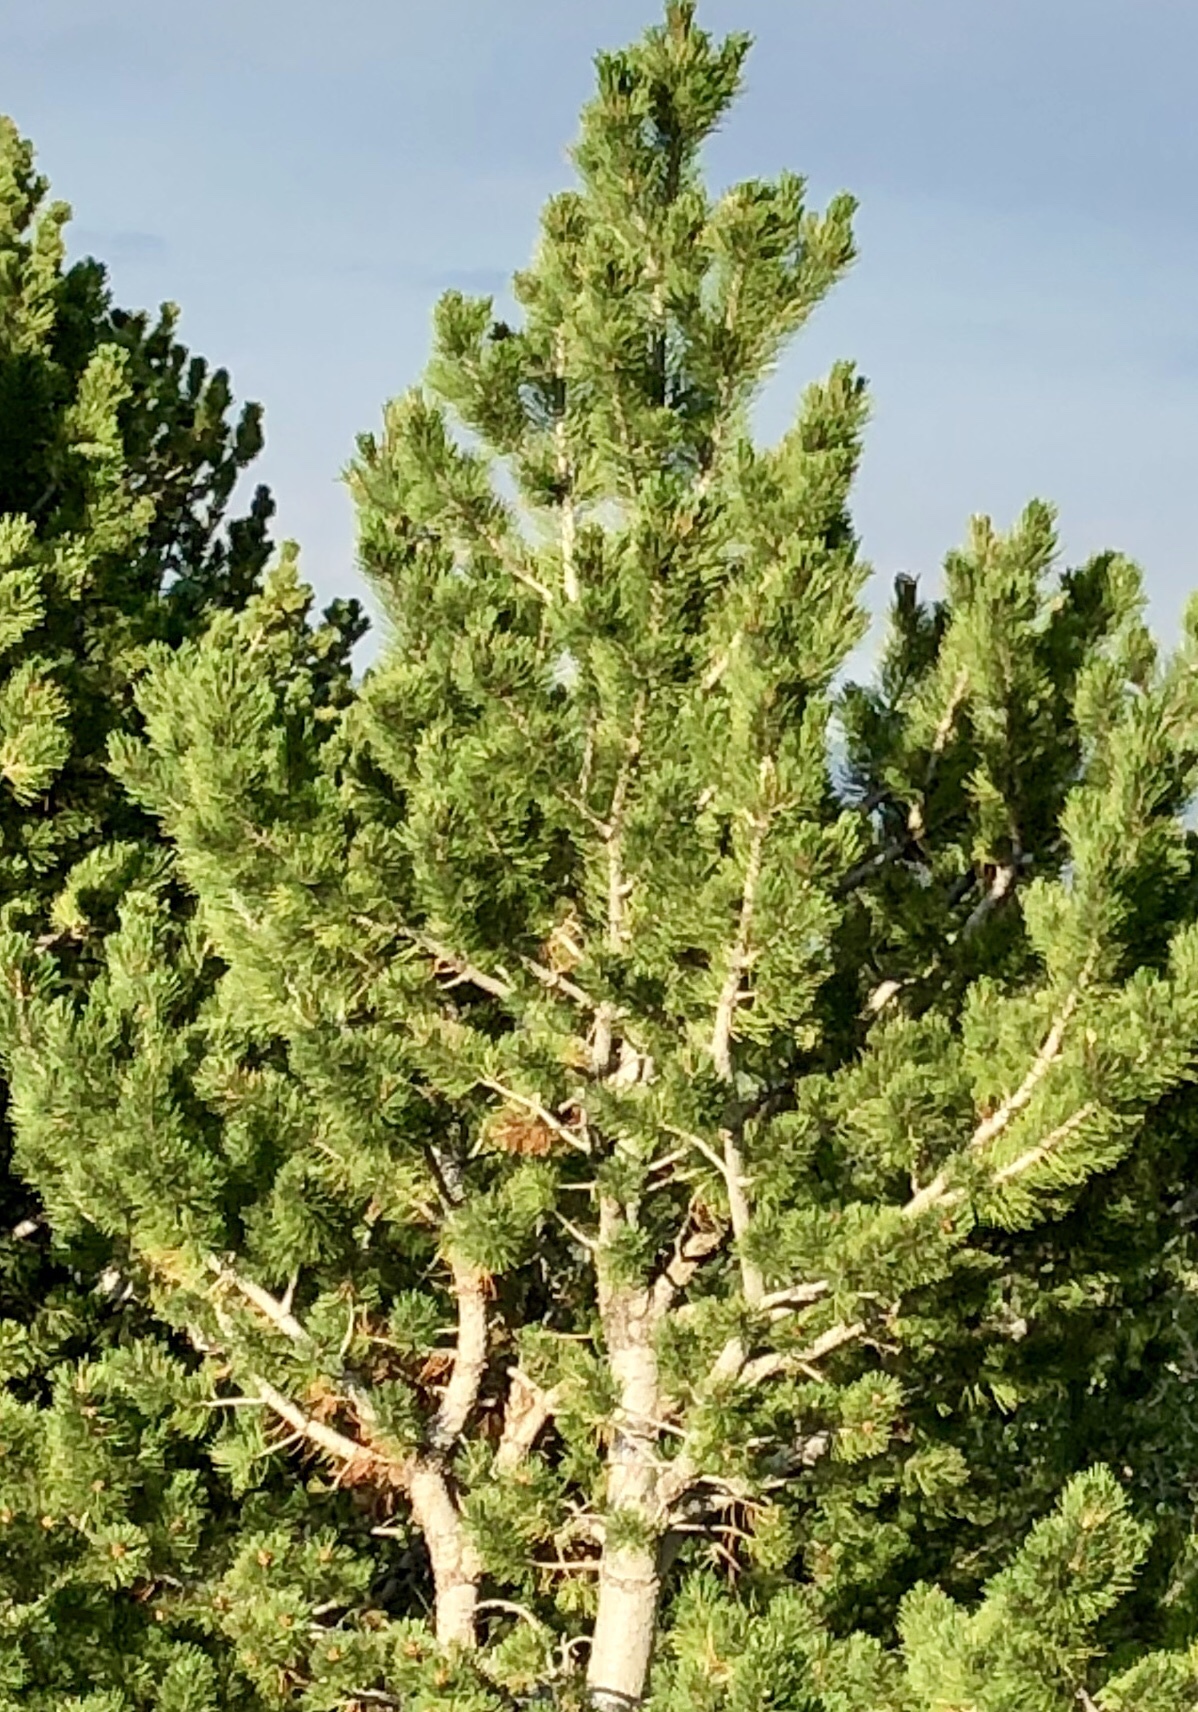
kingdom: Plantae
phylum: Tracheophyta
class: Pinopsida
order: Pinales
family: Pinaceae
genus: Pinus
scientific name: Pinus flexilis
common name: Limber pine
